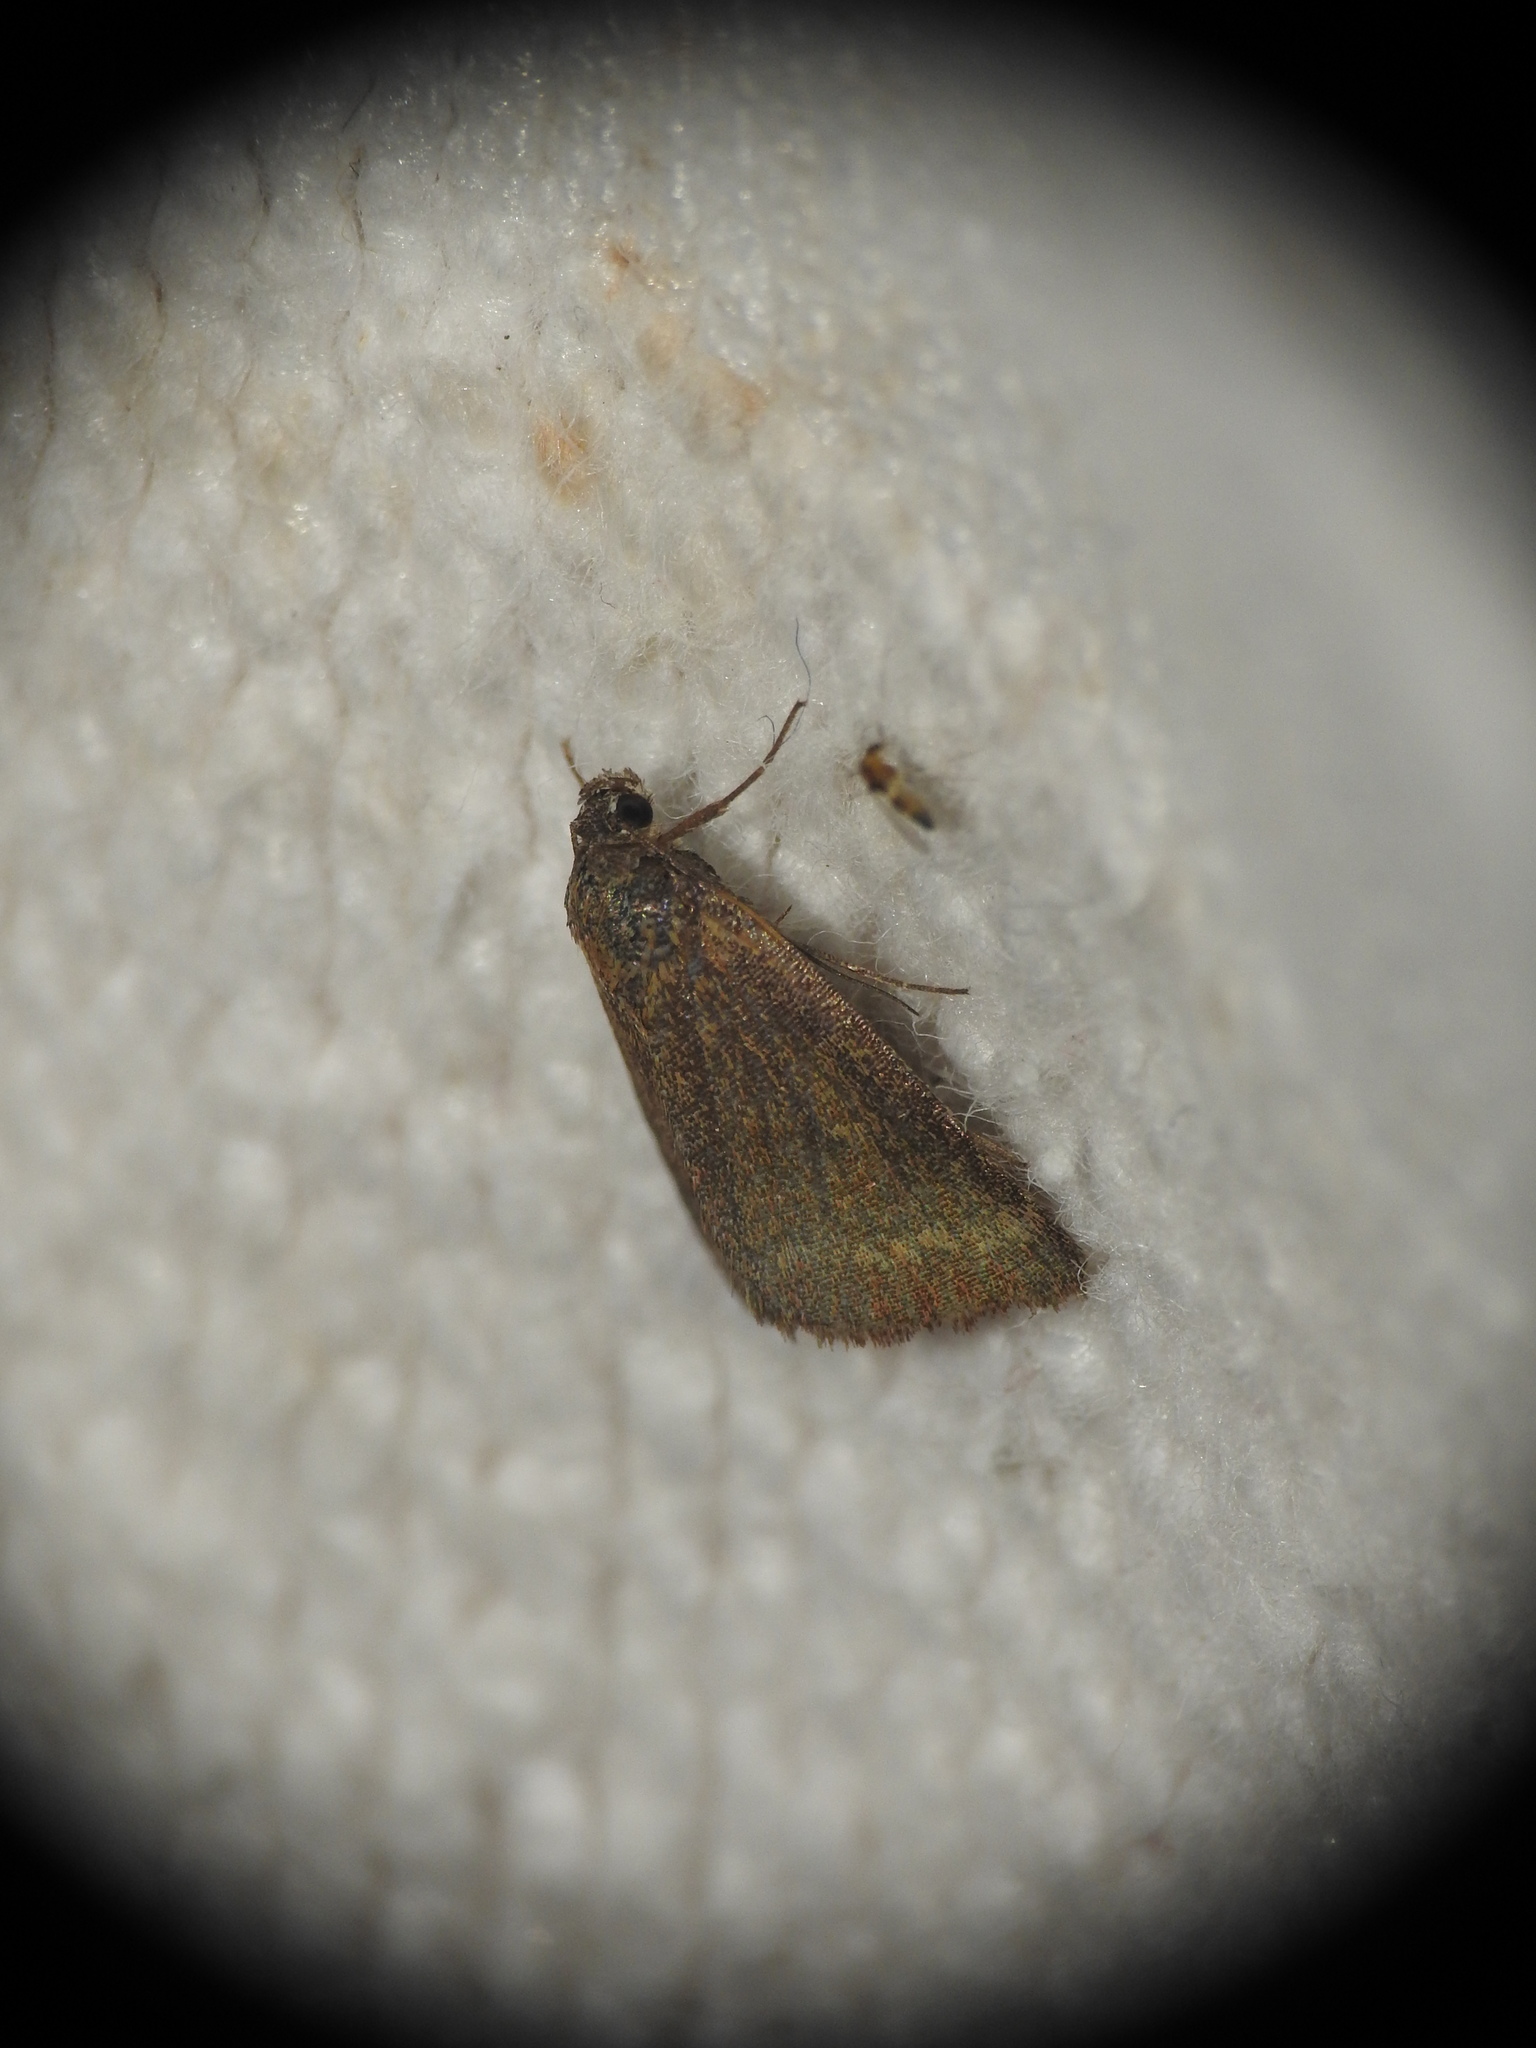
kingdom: Animalia
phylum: Arthropoda
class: Insecta
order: Lepidoptera
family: Erebidae
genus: Phytometra
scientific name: Phytometra viridaria
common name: Small purple-barred
